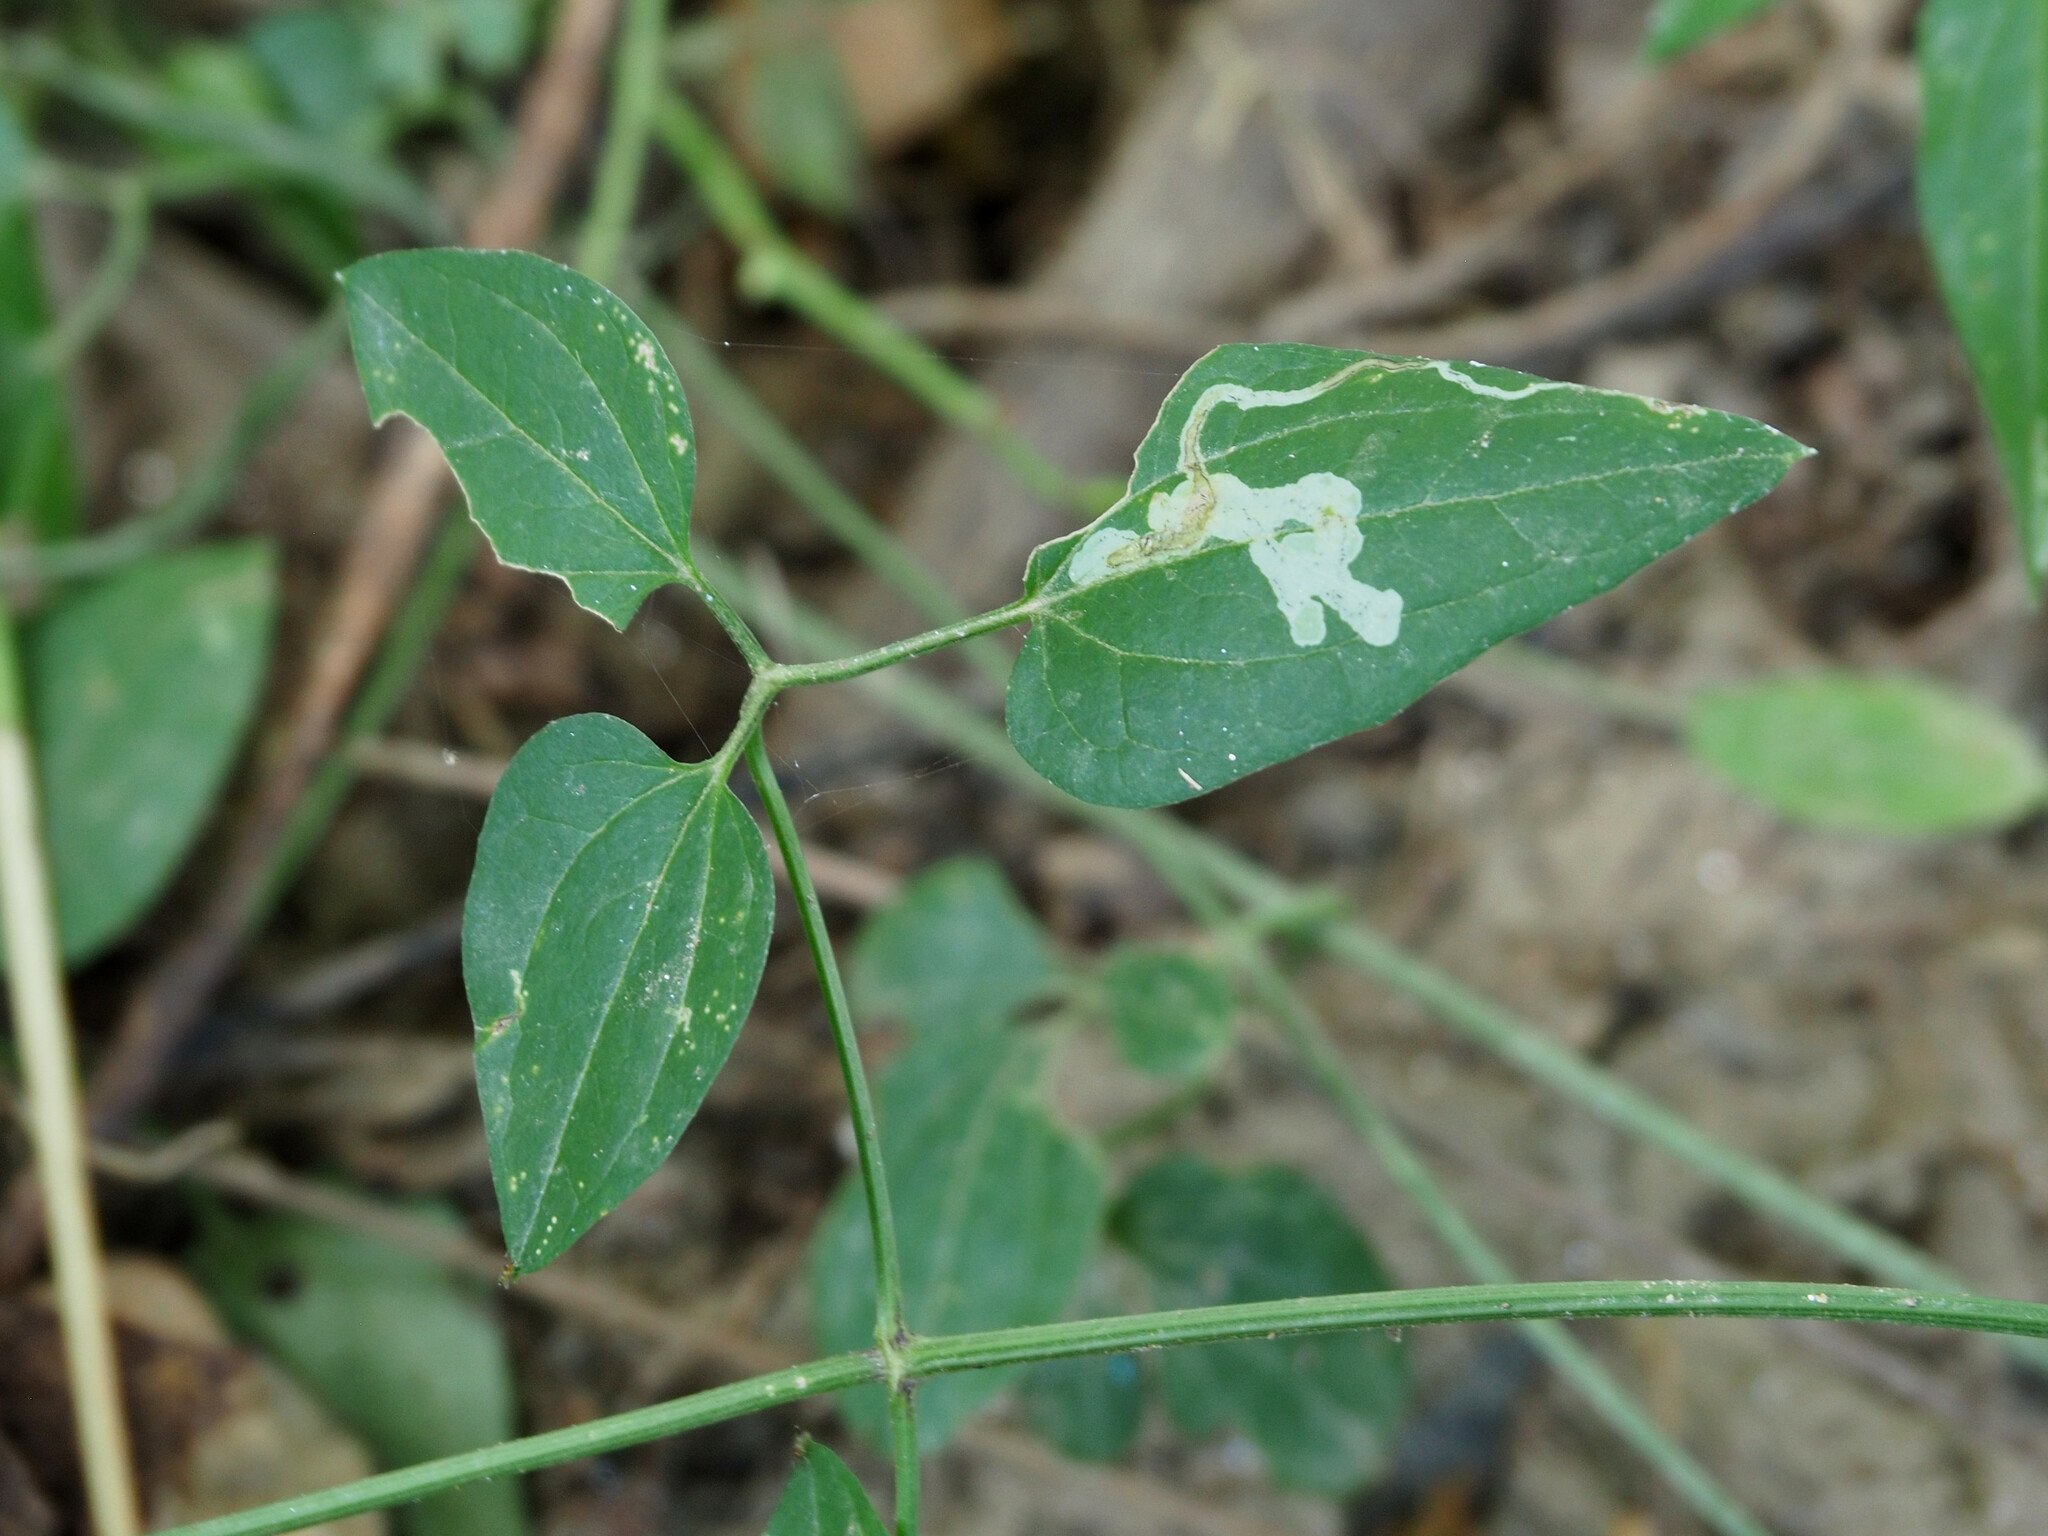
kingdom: Animalia
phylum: Arthropoda
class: Insecta
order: Diptera
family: Agromyzidae
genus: Phytomyza
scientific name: Phytomyza loewii
